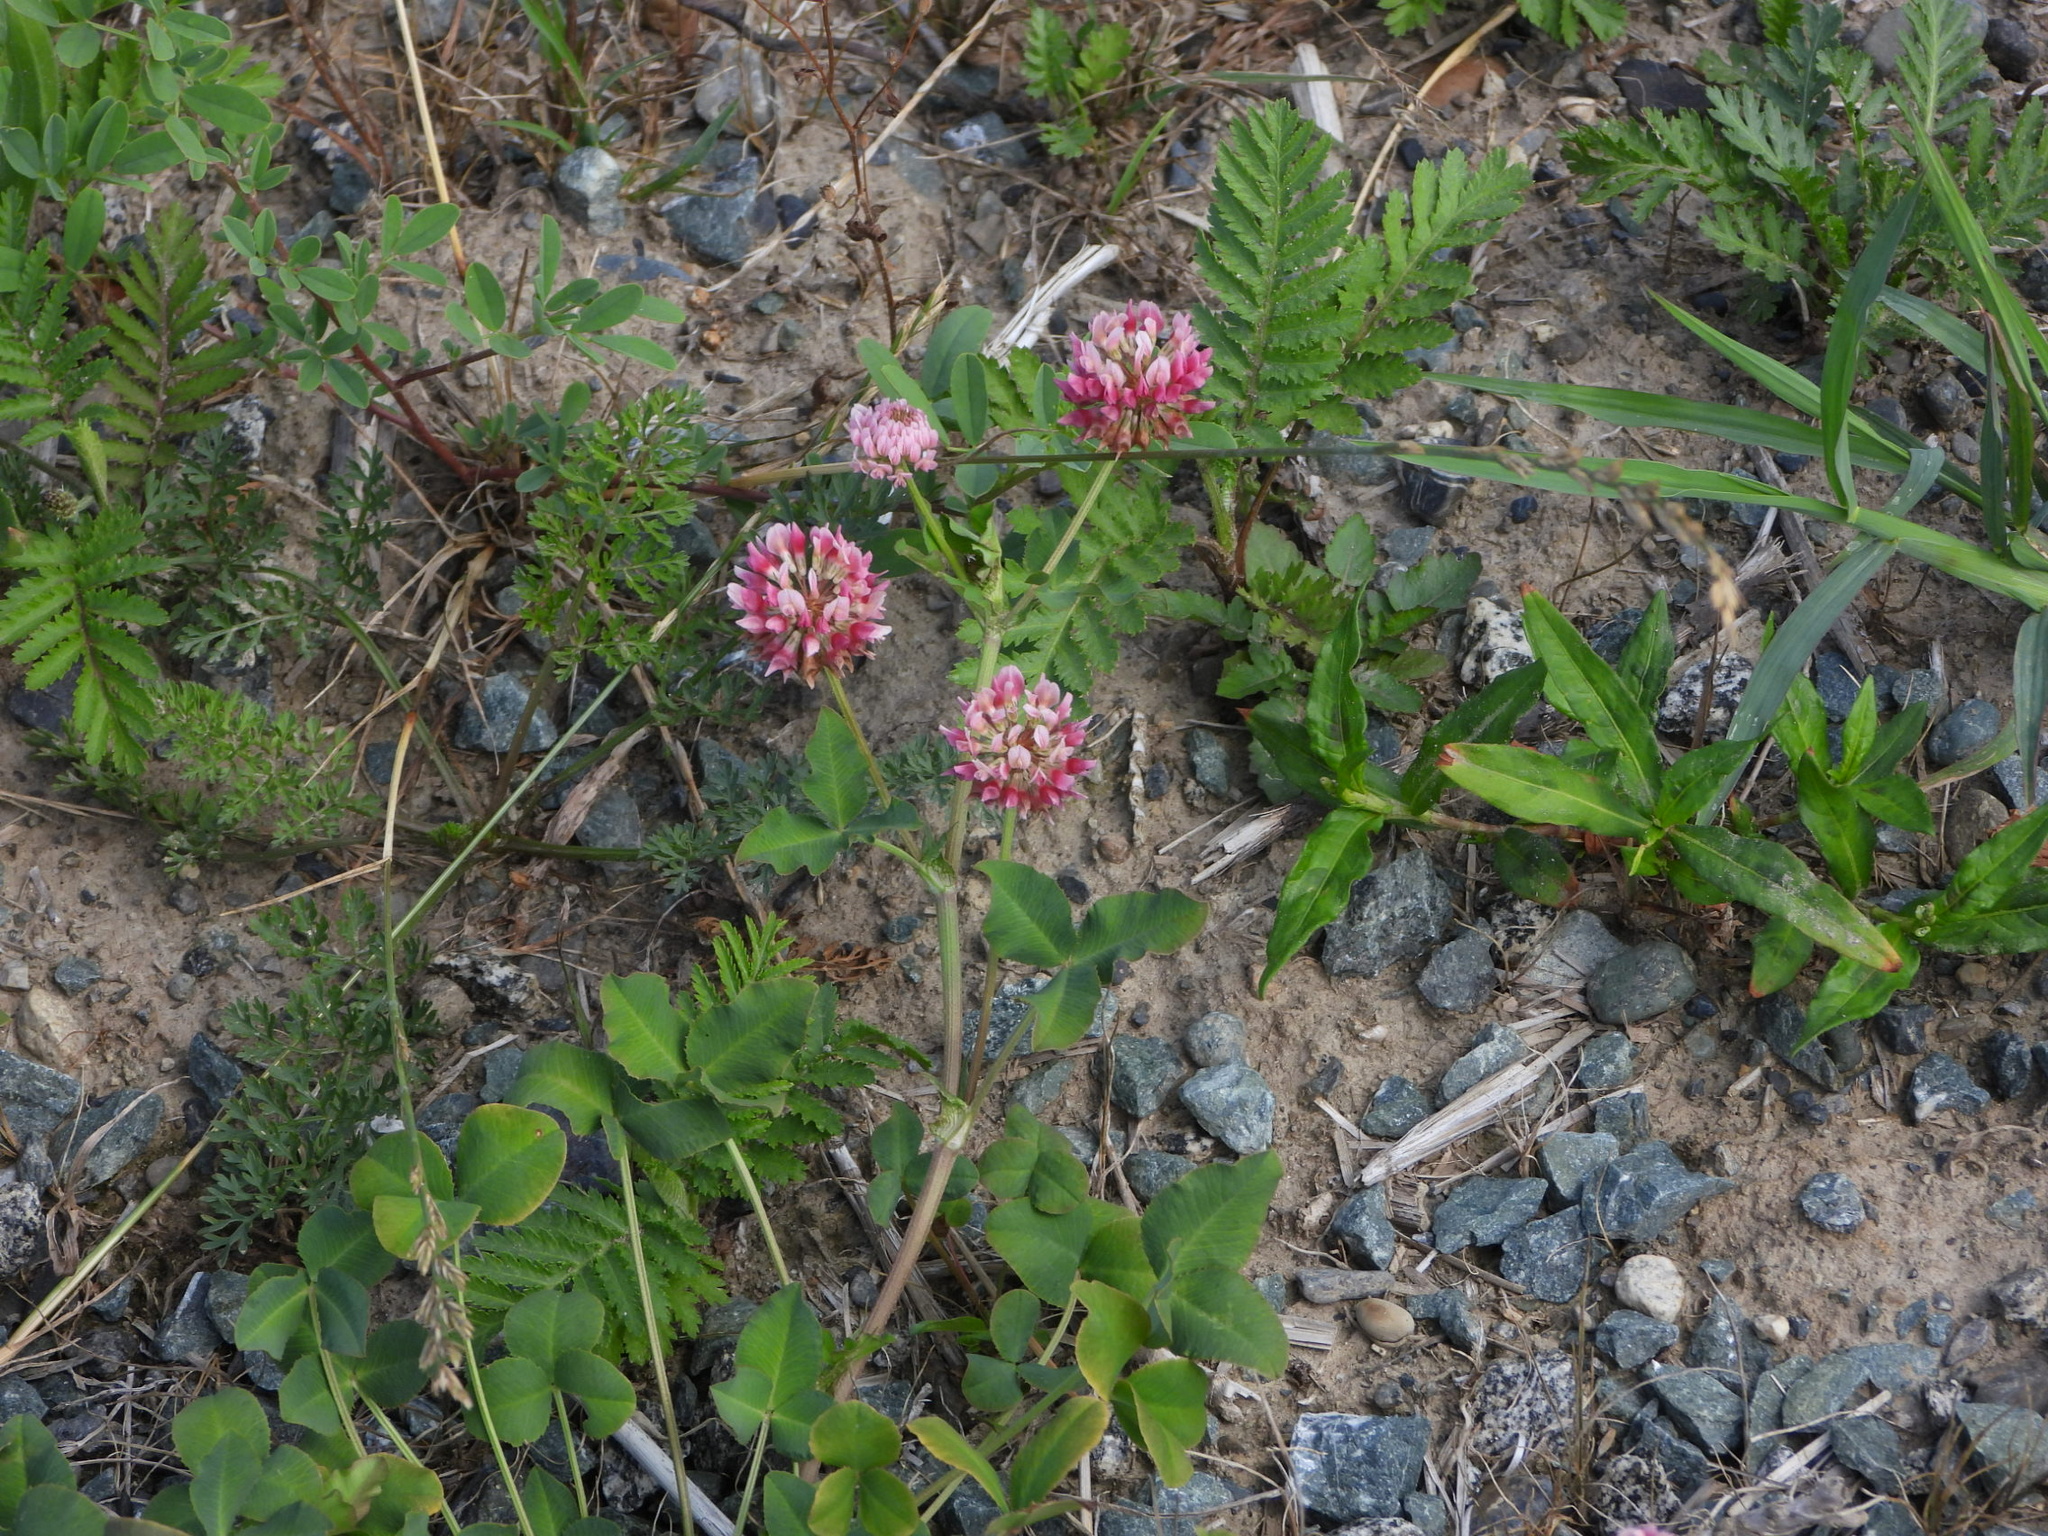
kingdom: Plantae
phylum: Tracheophyta
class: Magnoliopsida
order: Fabales
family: Fabaceae
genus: Trifolium
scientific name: Trifolium hybridum
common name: Alsike clover
